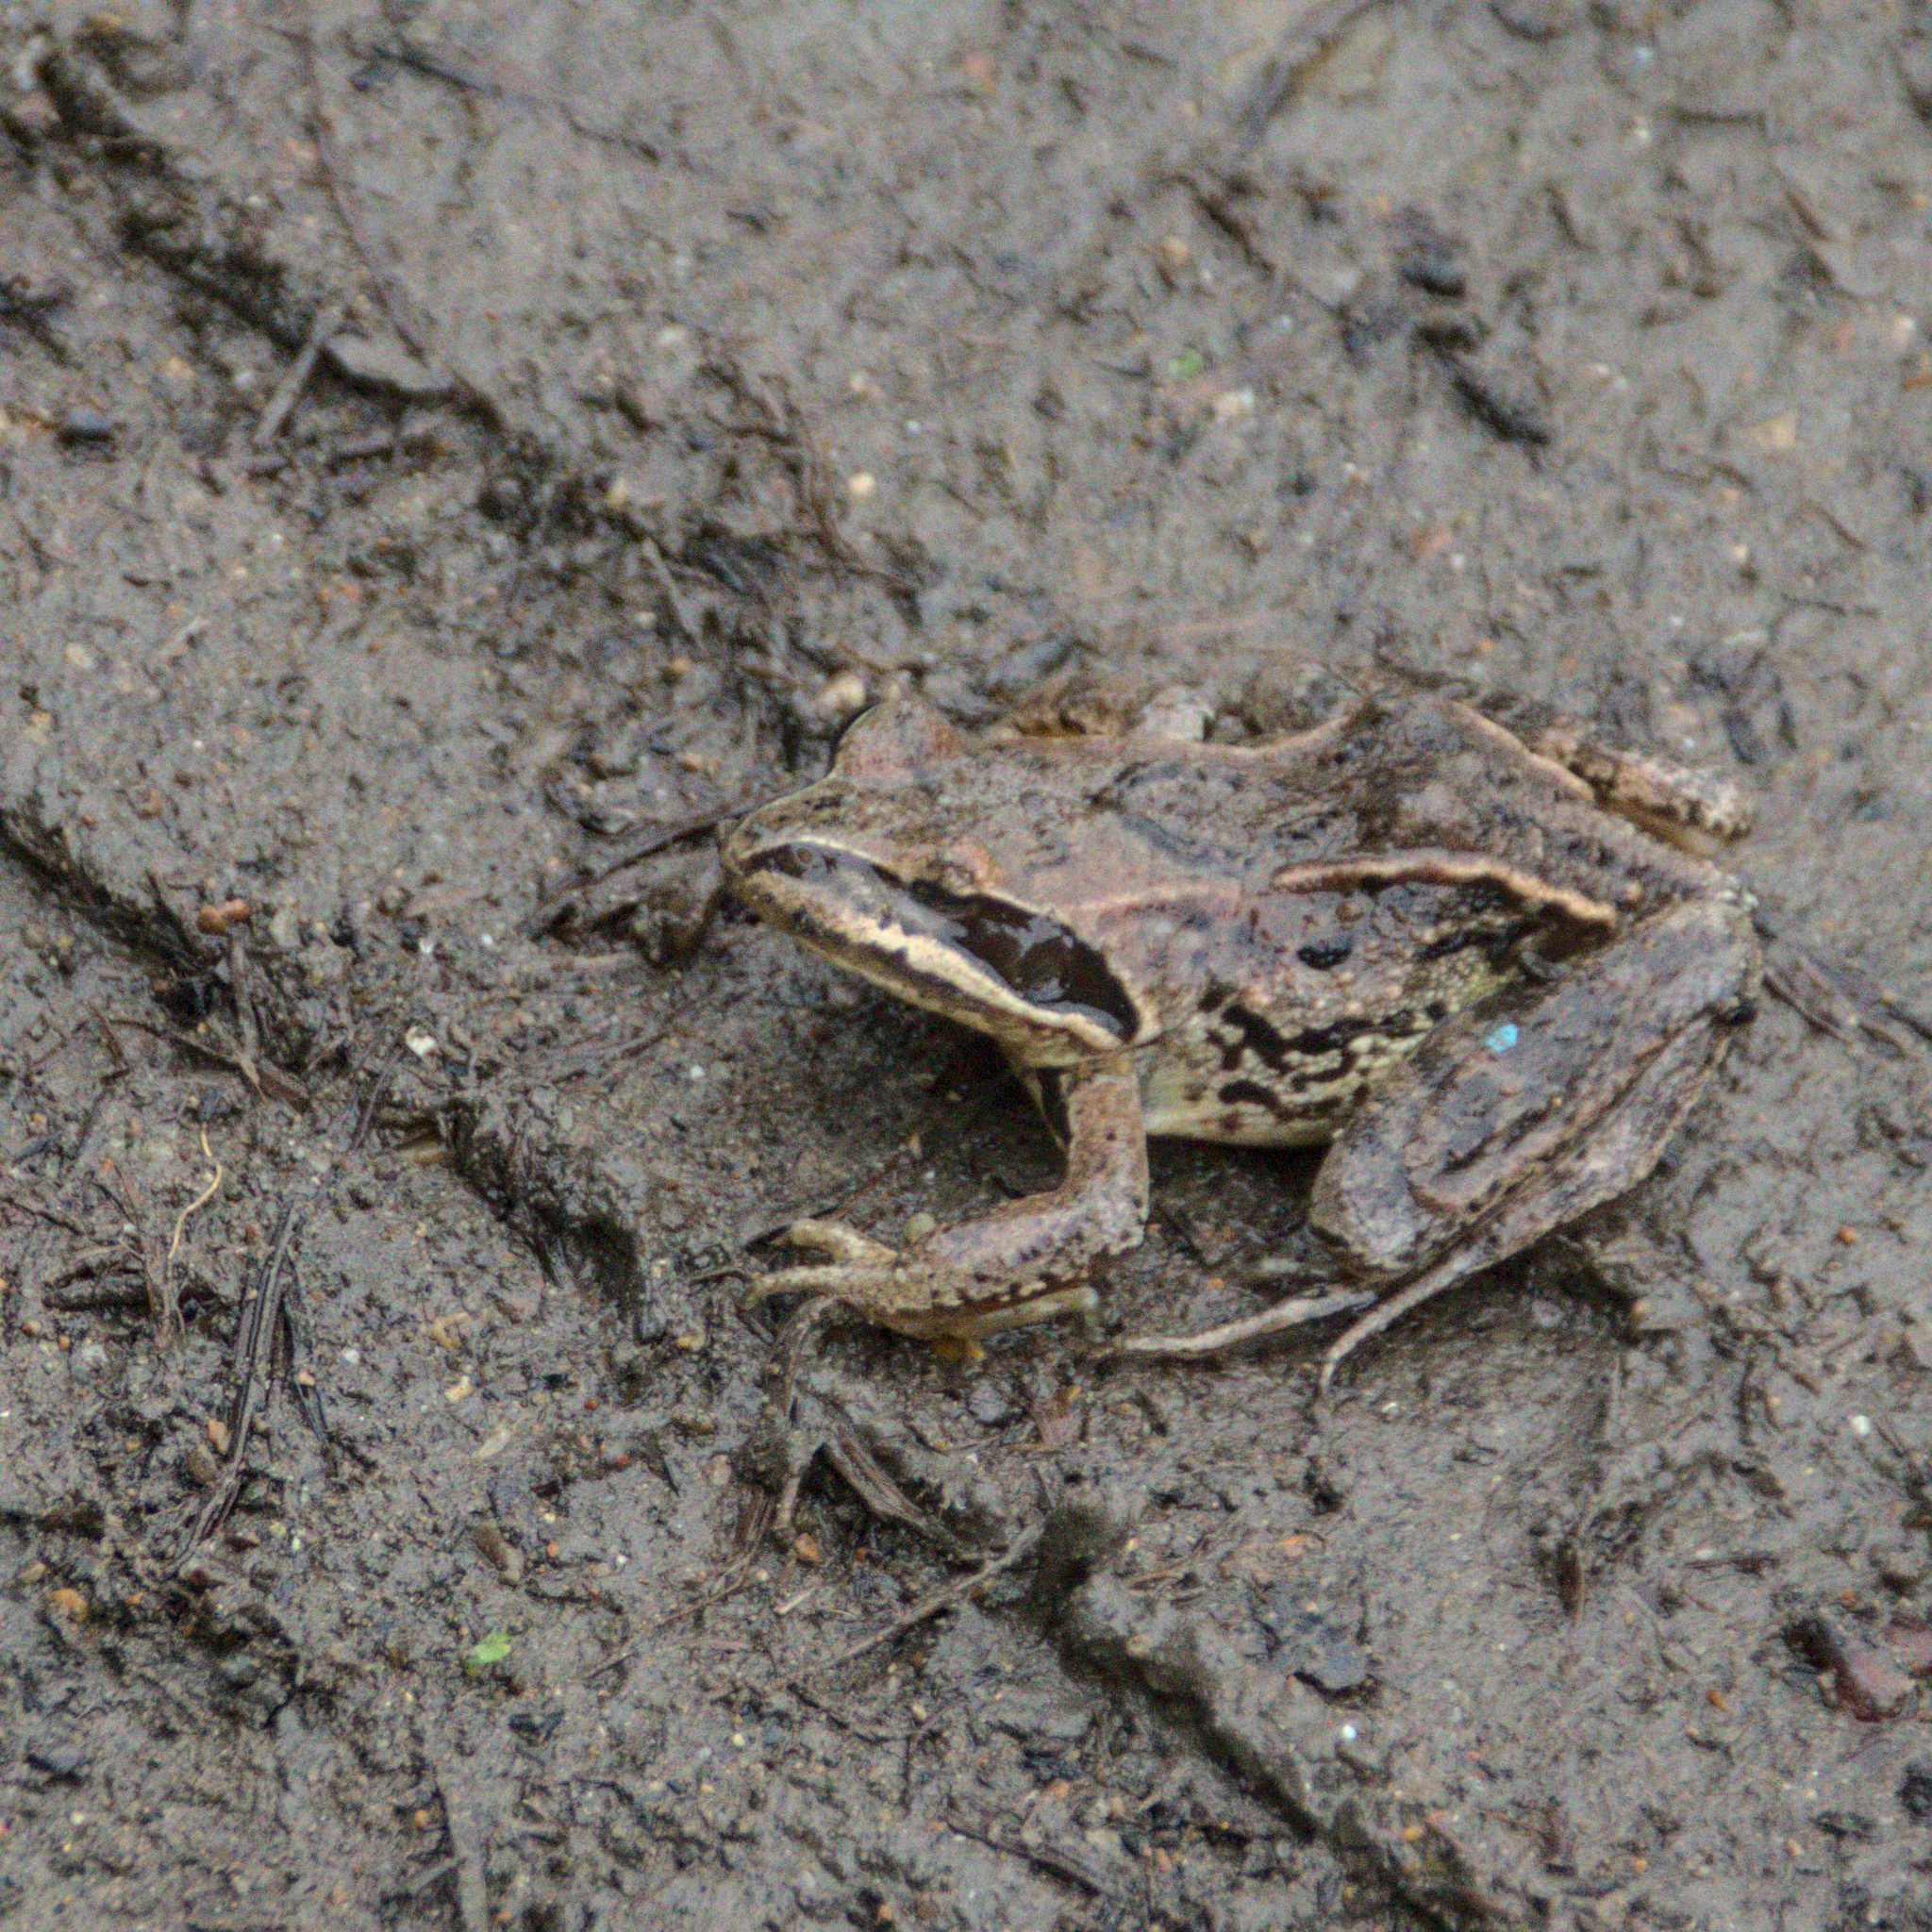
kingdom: Animalia
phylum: Chordata
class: Amphibia
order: Anura
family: Ranidae
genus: Rana
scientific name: Rana arvalis
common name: Moor frog
